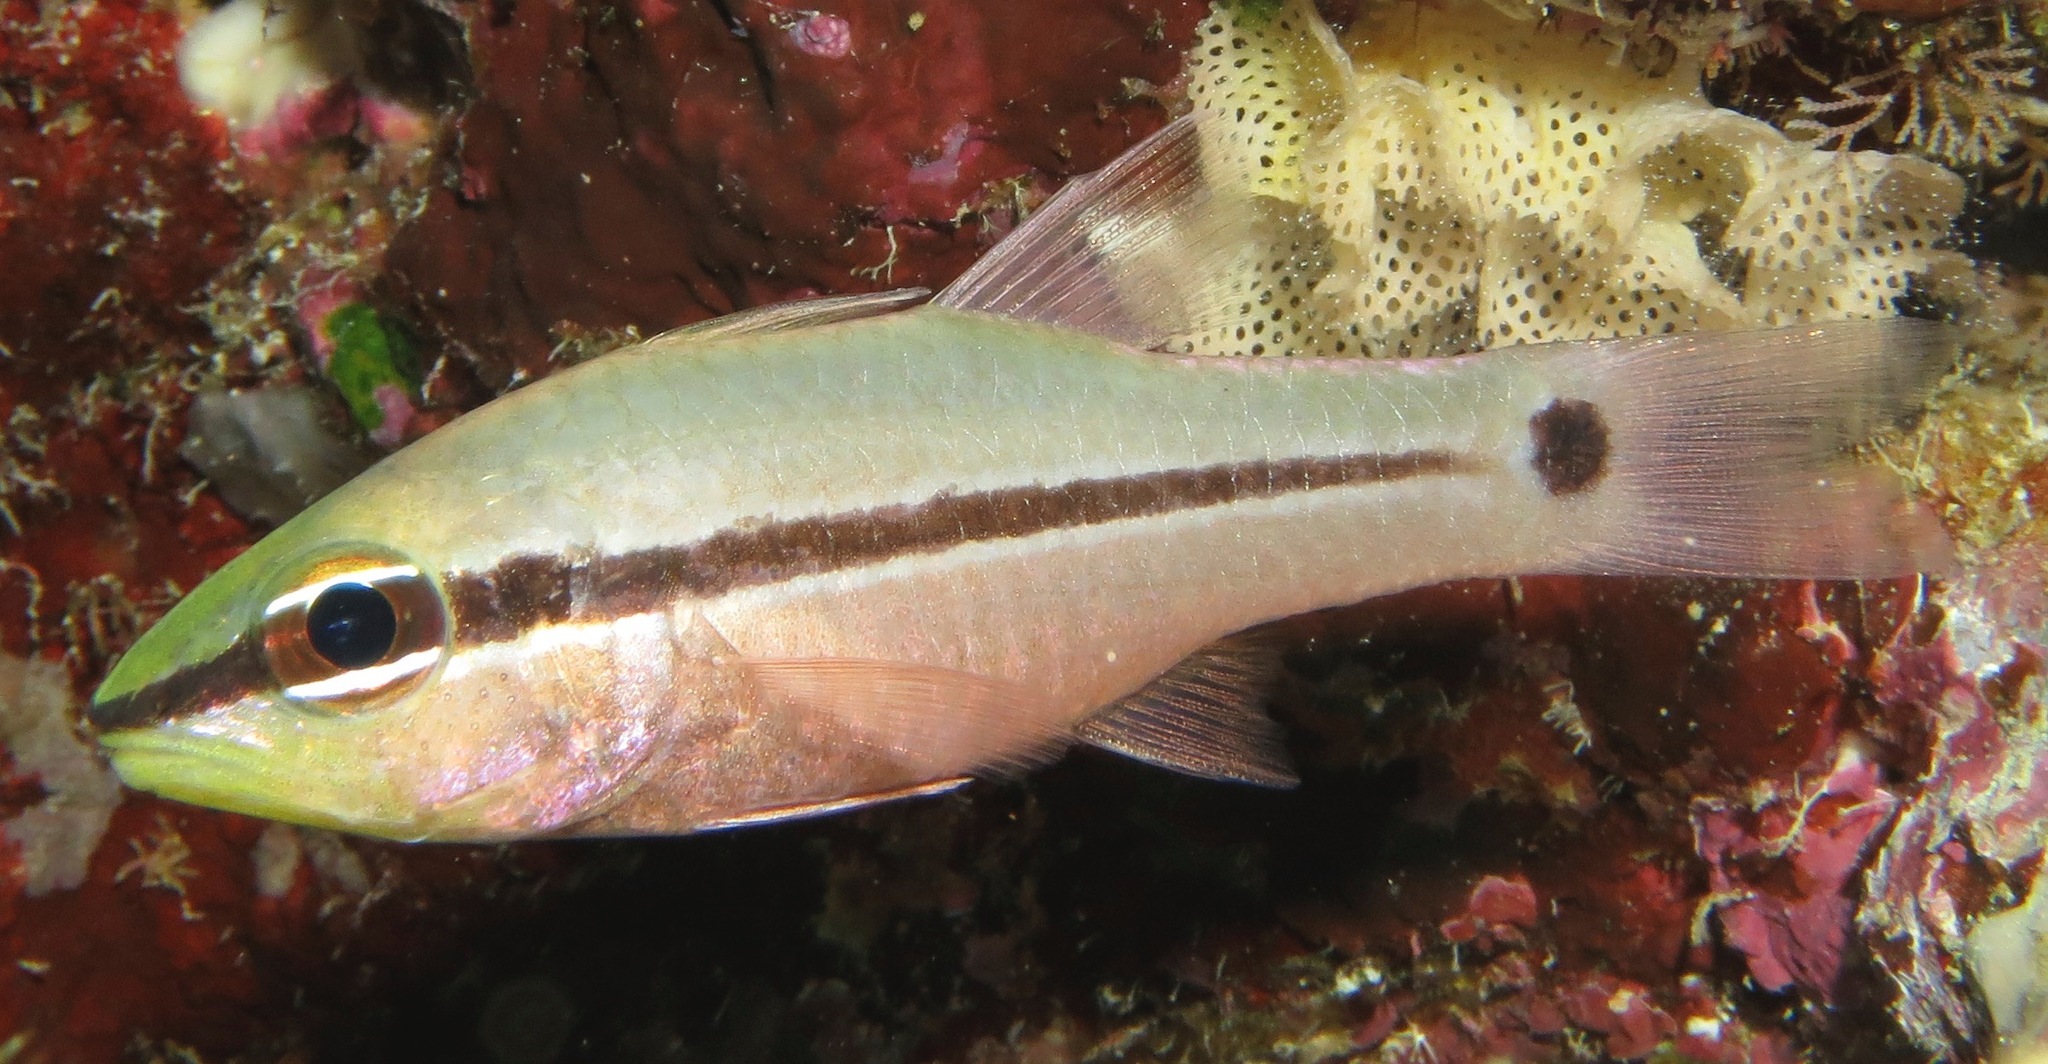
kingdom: Animalia
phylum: Chordata
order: Perciformes
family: Apogonidae
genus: Pristiapogon
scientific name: Pristiapogon fraenatus
